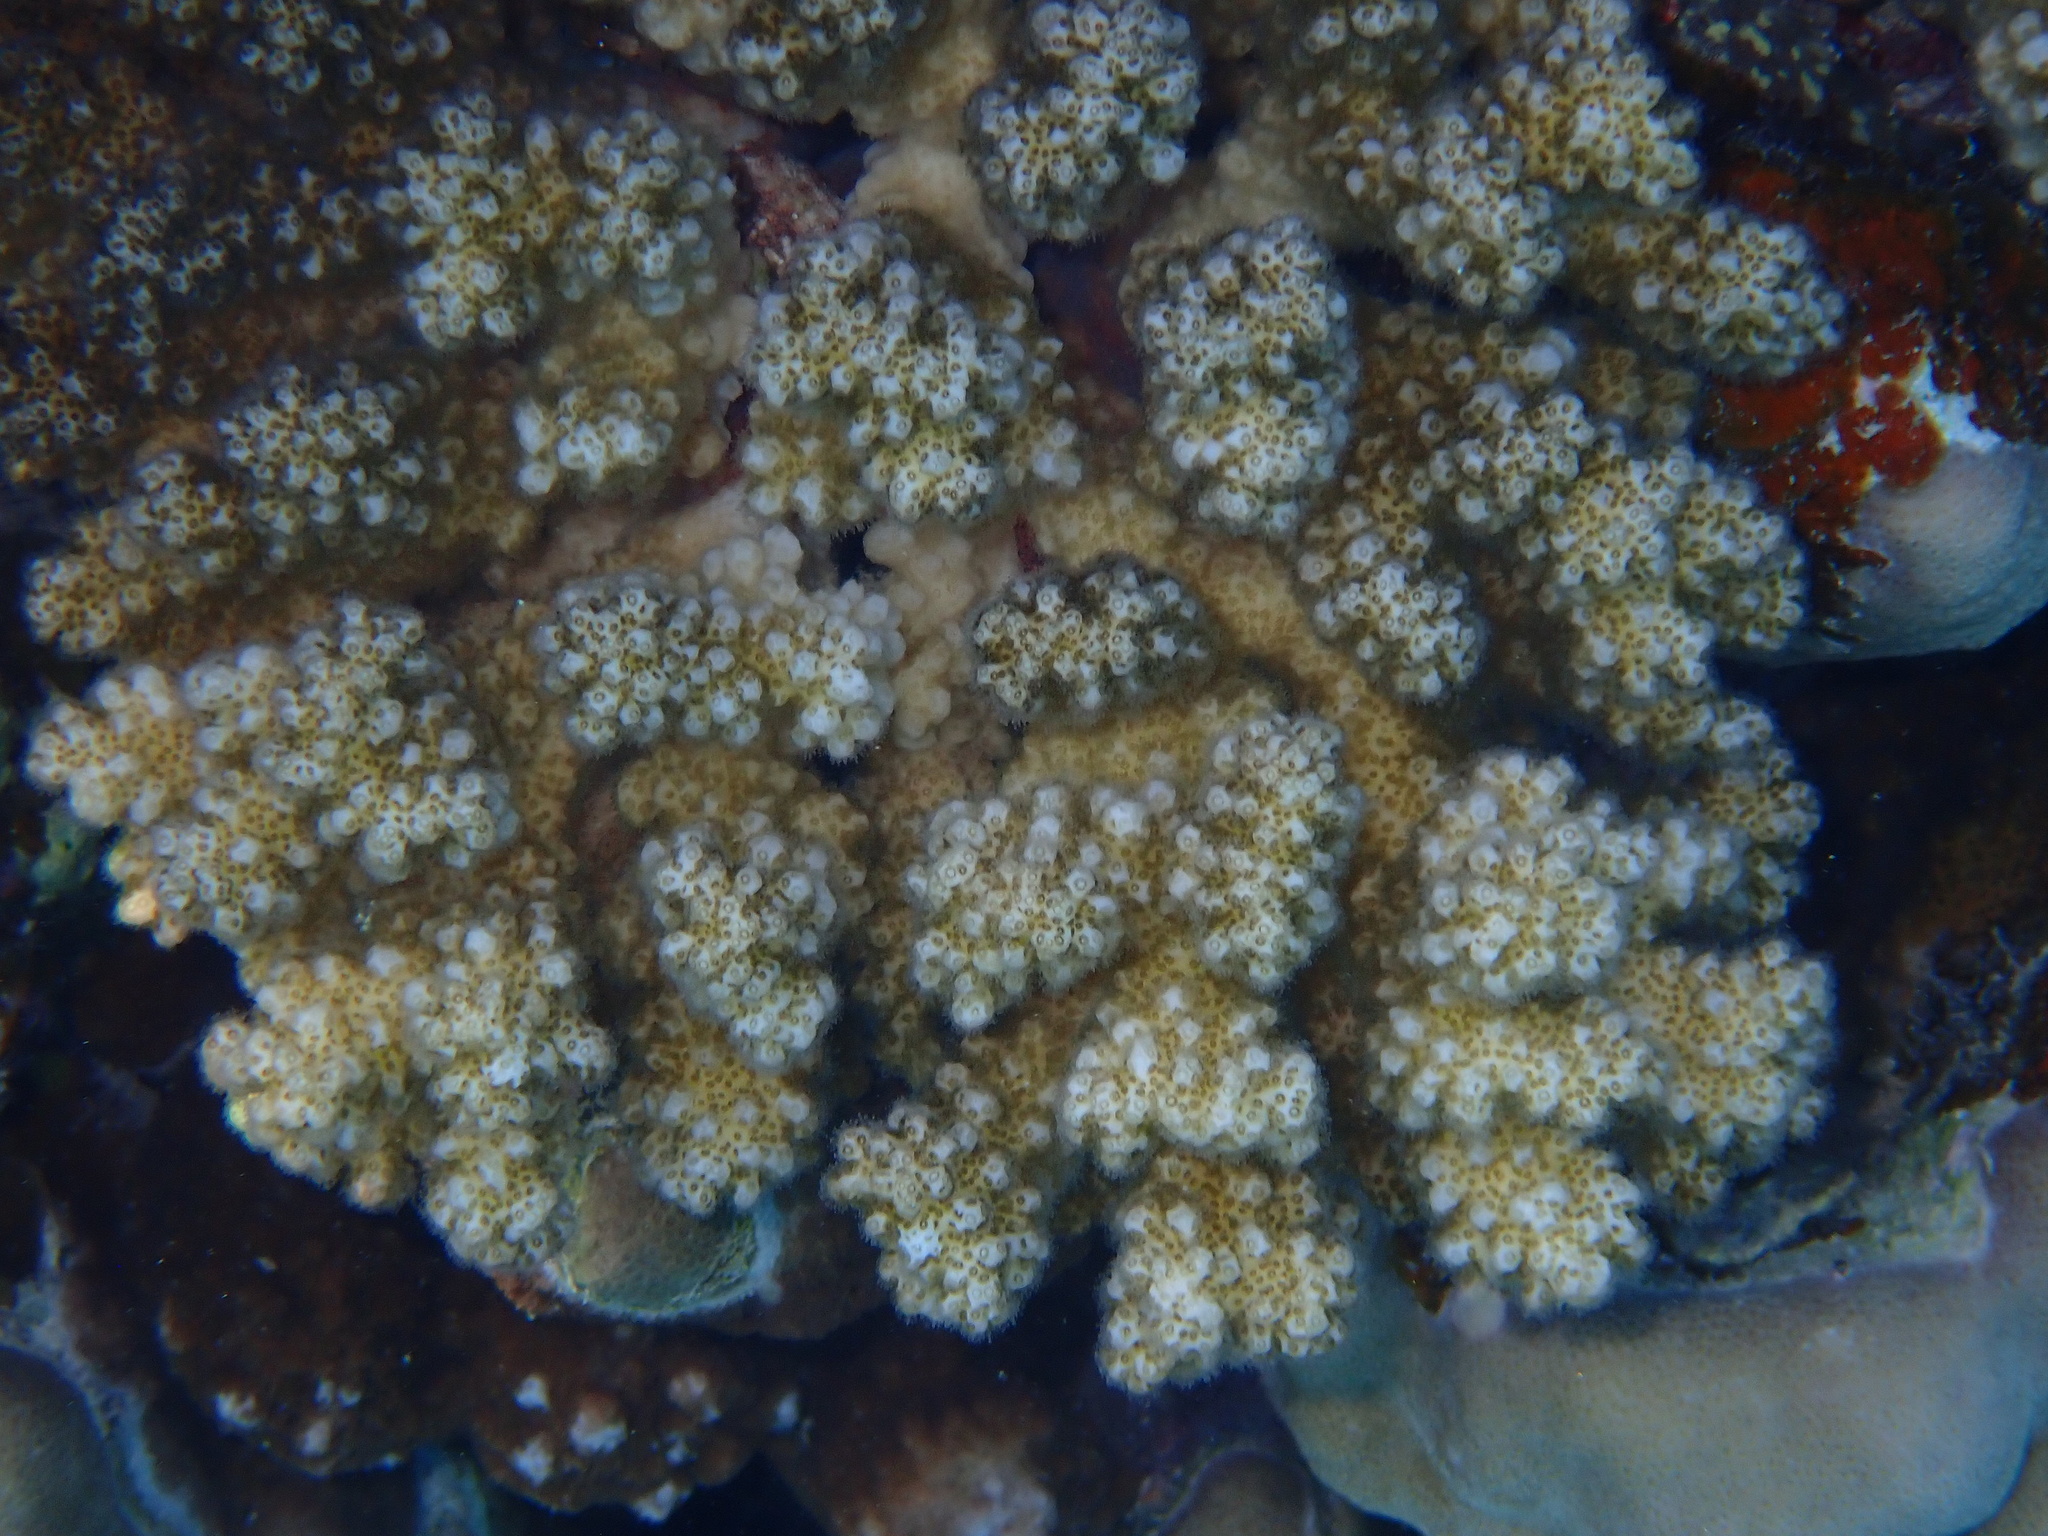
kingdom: Animalia
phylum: Cnidaria
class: Anthozoa
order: Scleractinia
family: Pocilloporidae
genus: Pocillopora
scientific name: Pocillopora verrucosa
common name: Cauliflower coral
